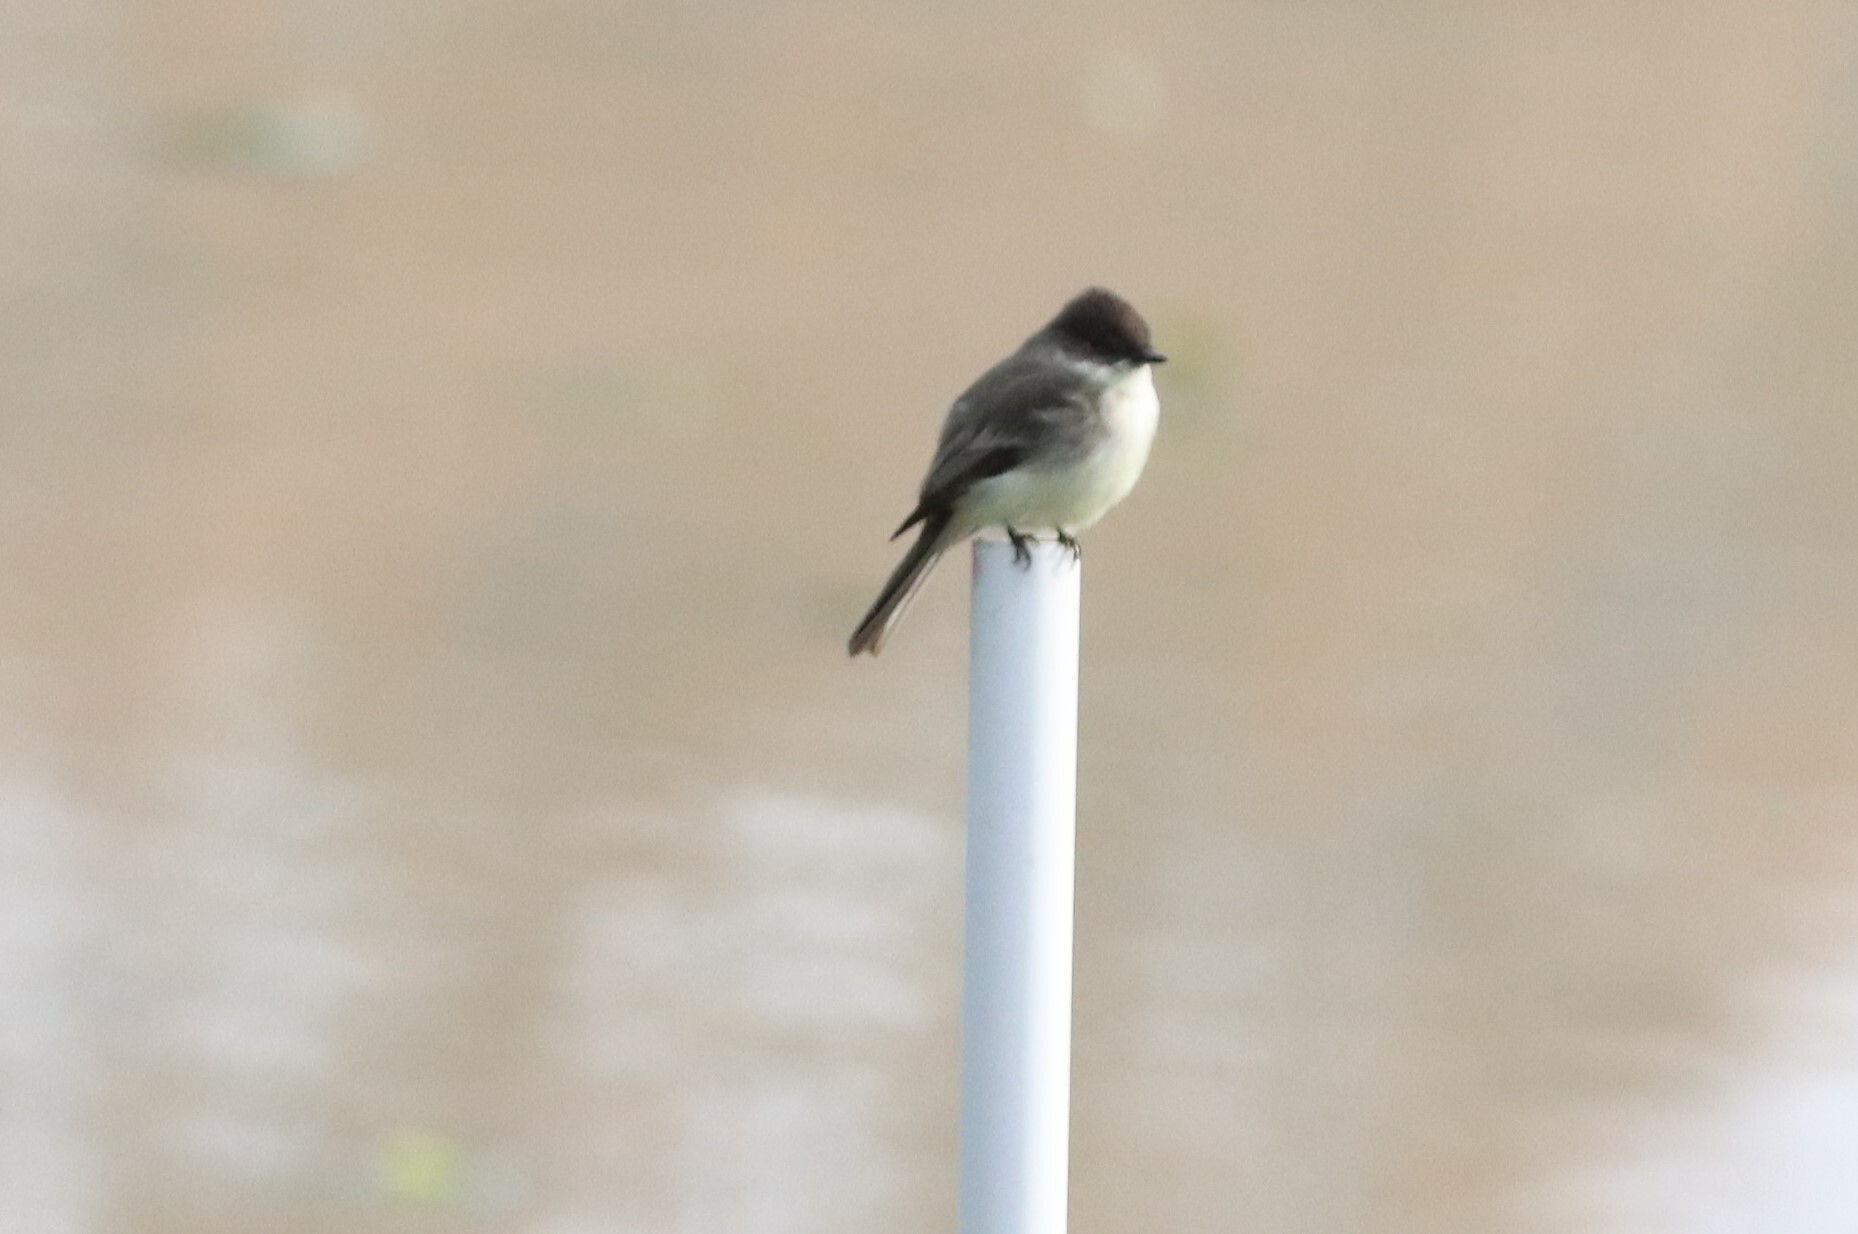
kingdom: Animalia
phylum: Chordata
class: Aves
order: Passeriformes
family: Tyrannidae
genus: Sayornis
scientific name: Sayornis phoebe
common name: Eastern phoebe
